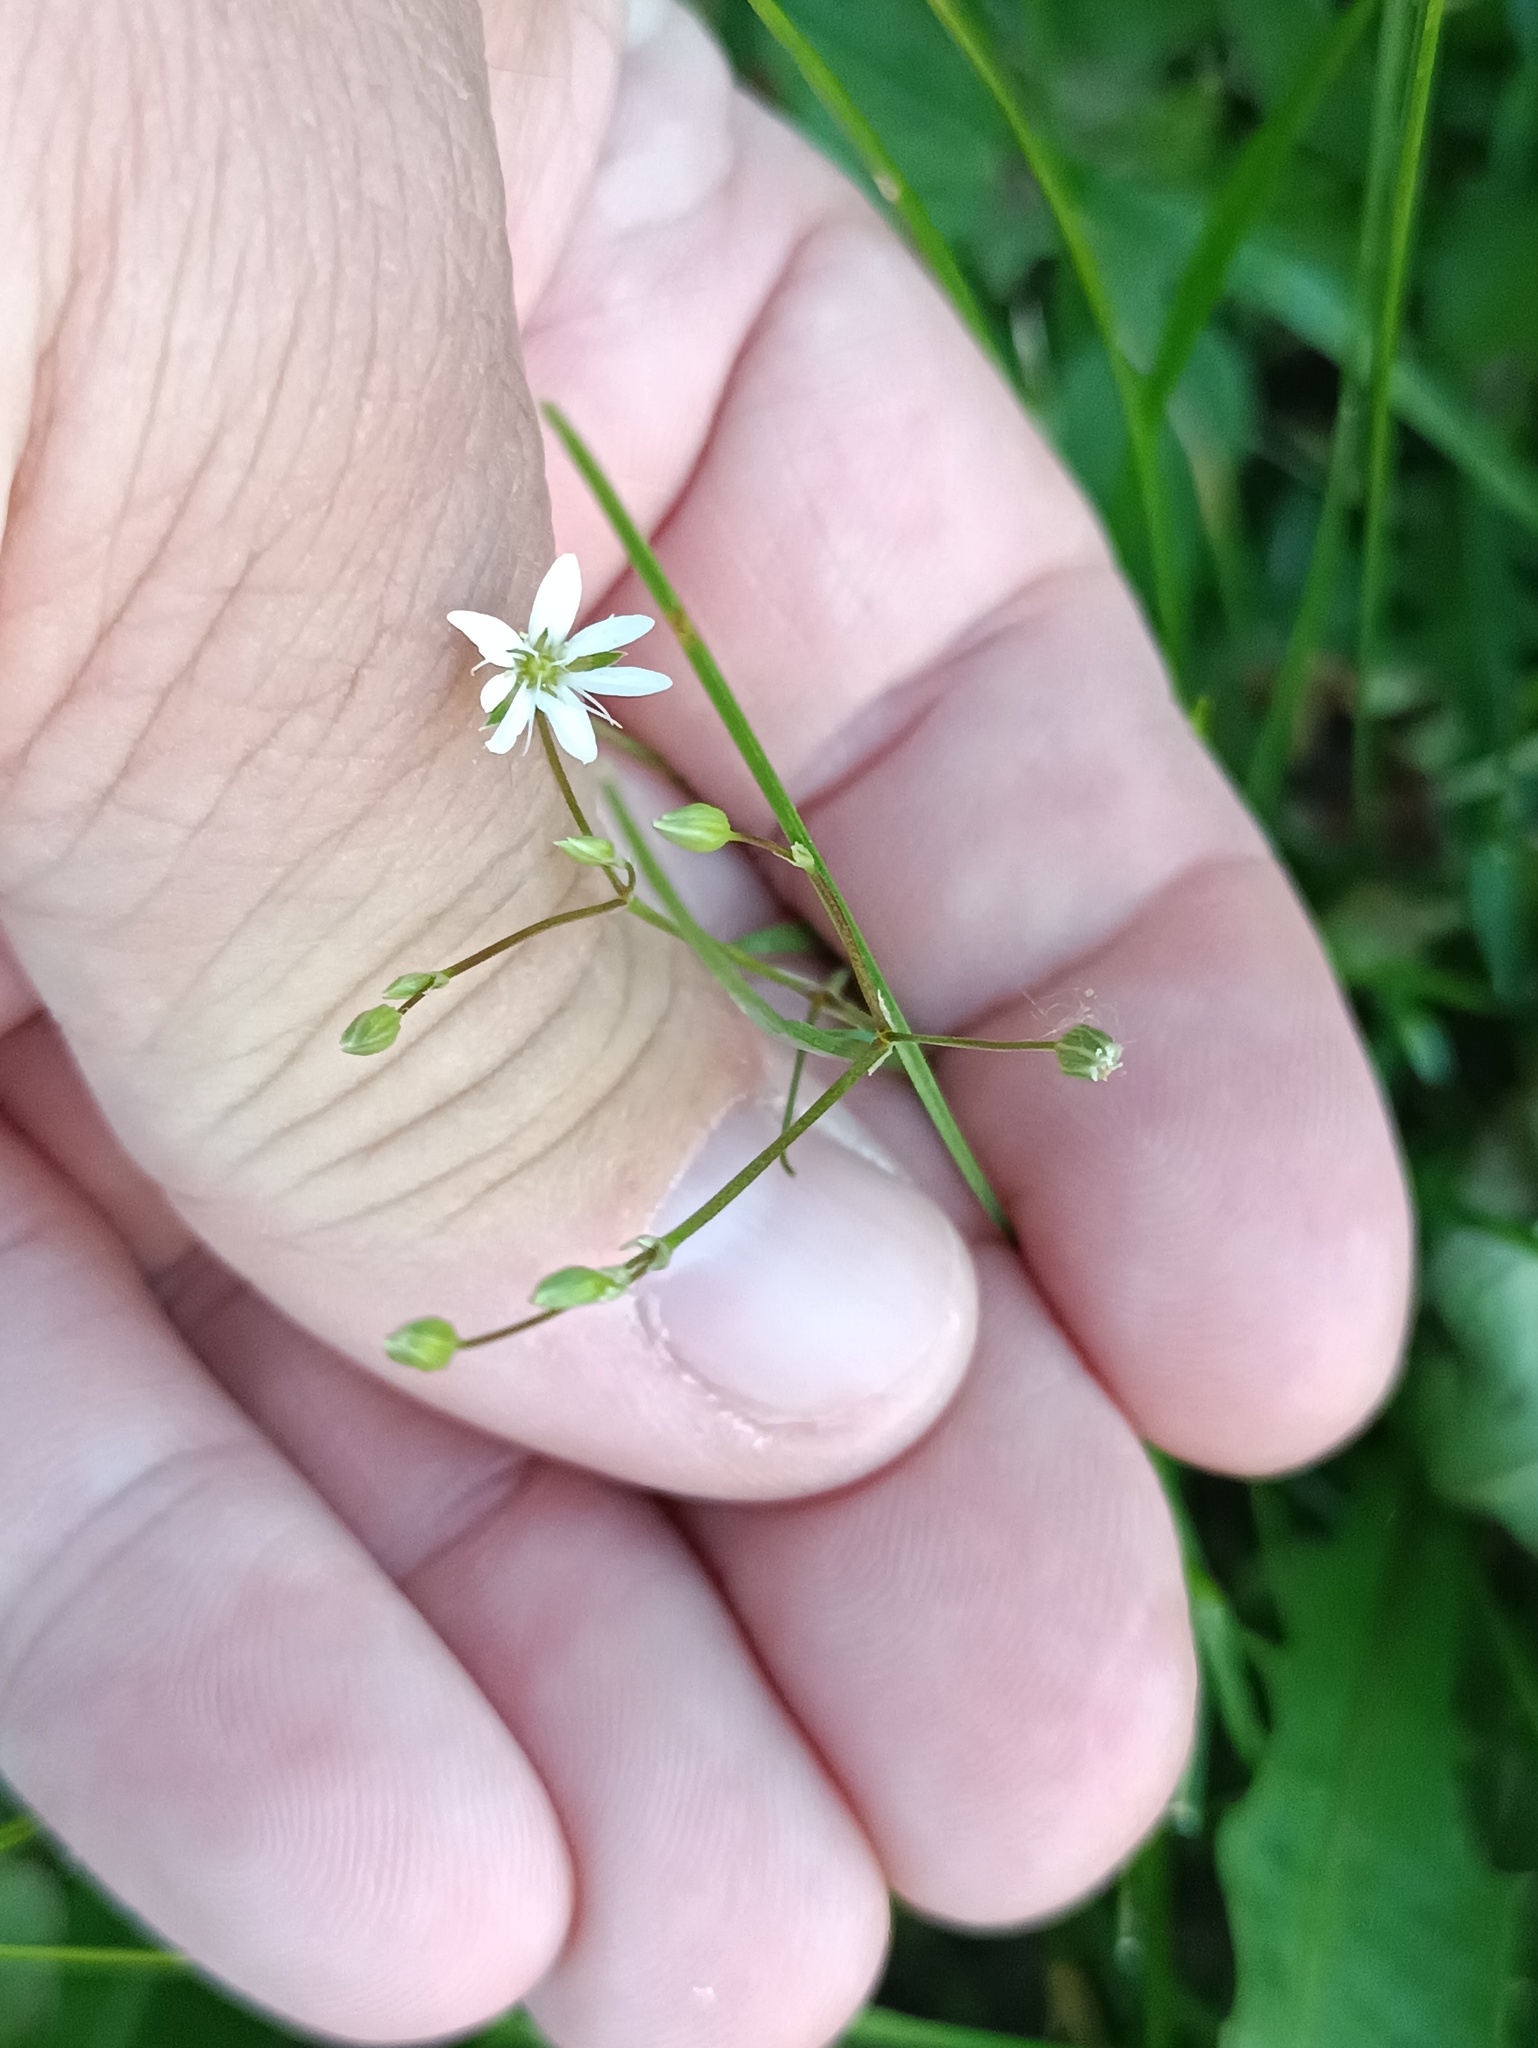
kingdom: Plantae
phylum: Tracheophyta
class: Magnoliopsida
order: Caryophyllales
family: Caryophyllaceae
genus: Stellaria
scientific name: Stellaria graminea
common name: Grass-like starwort
